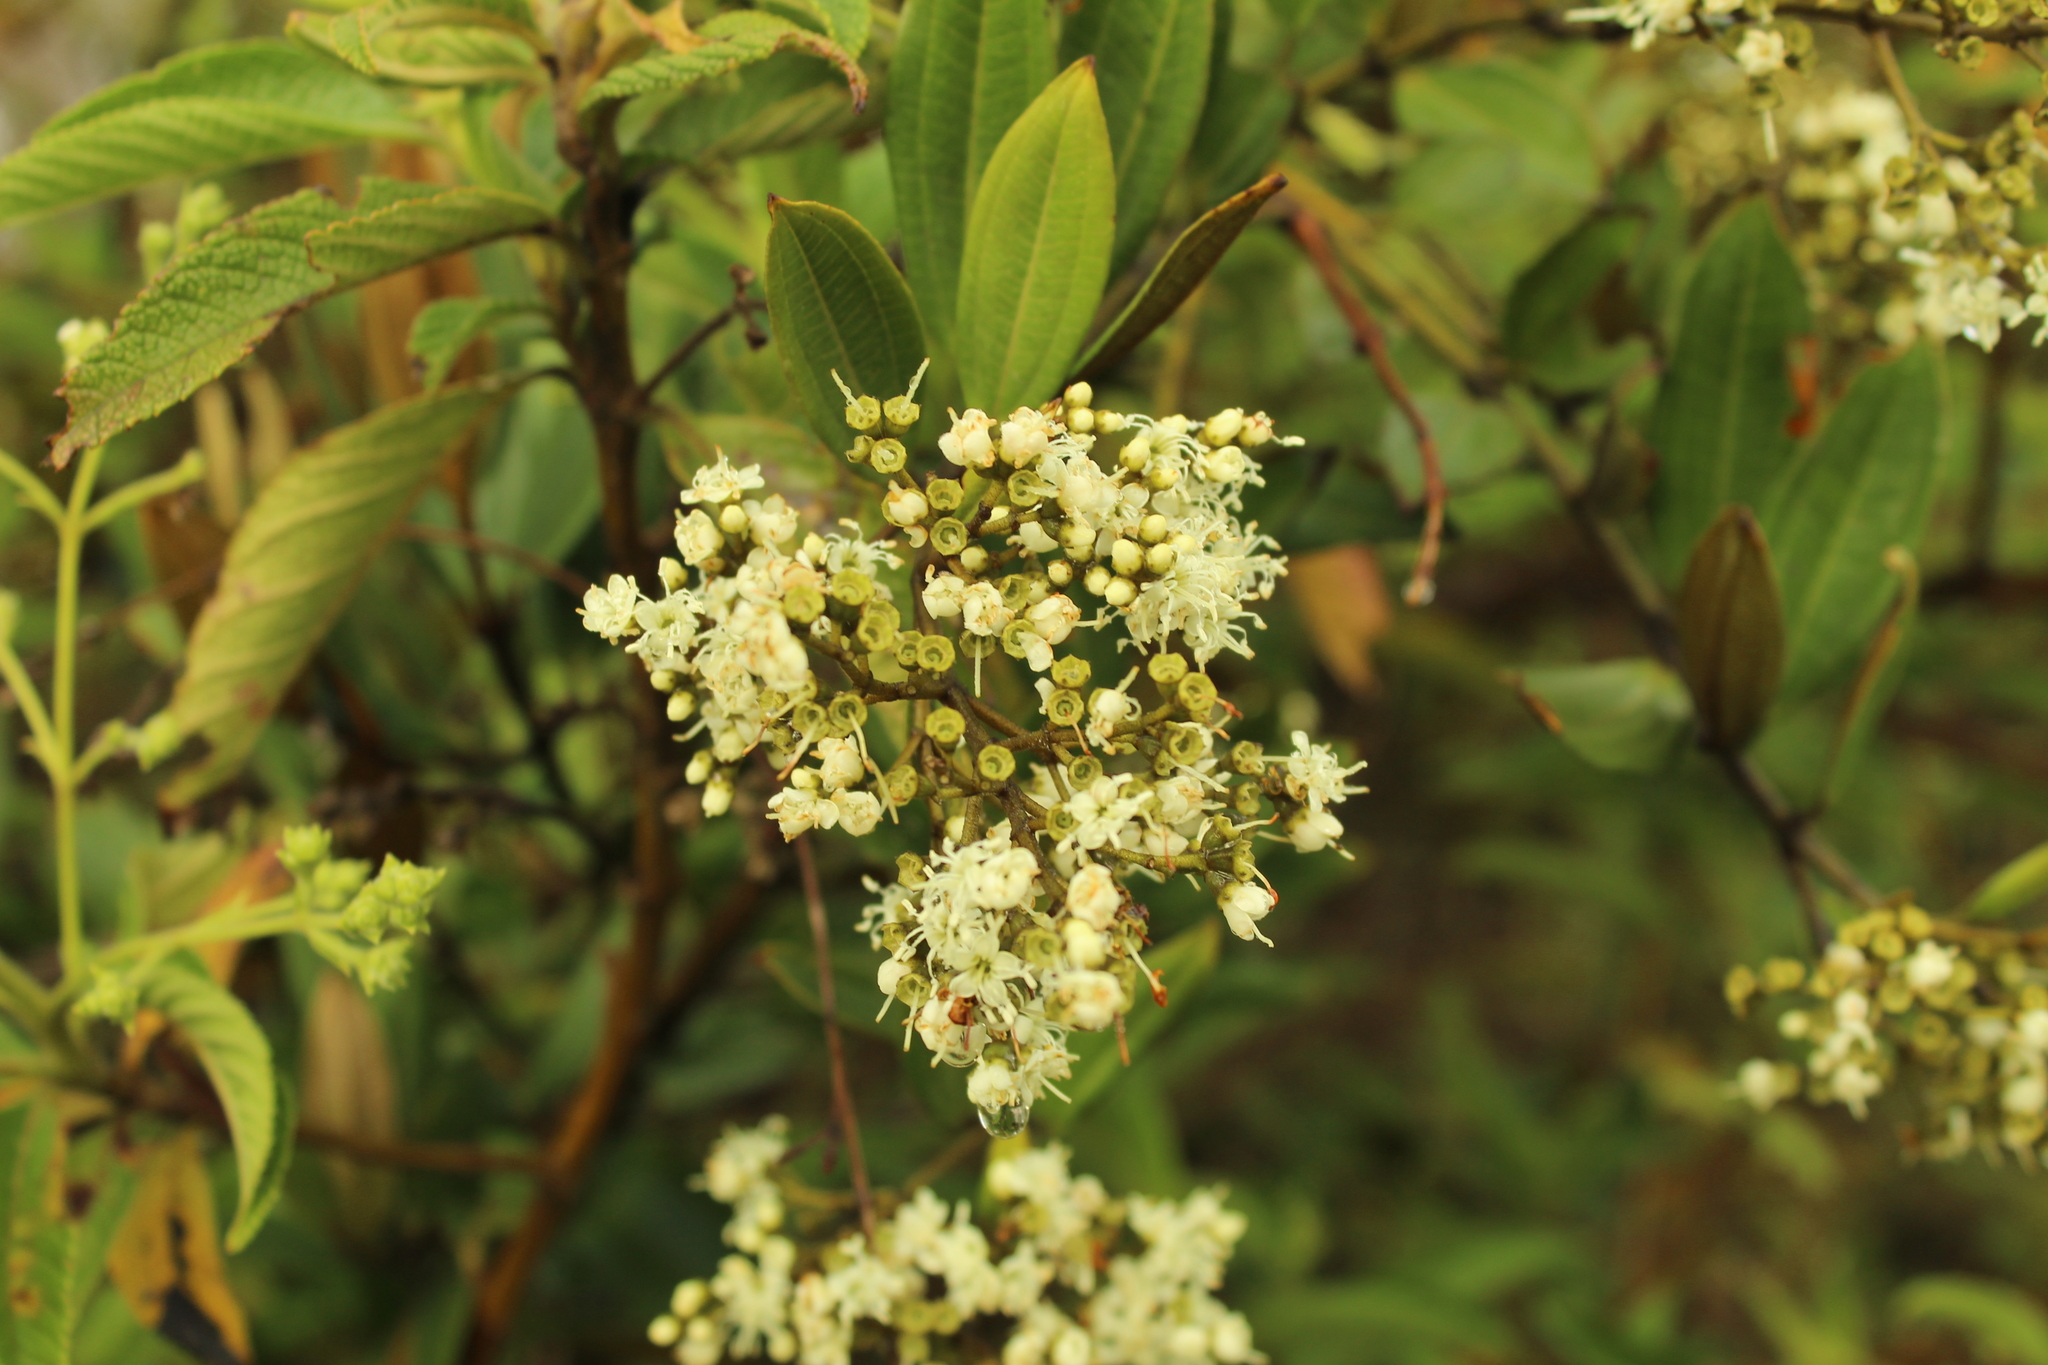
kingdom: Plantae
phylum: Tracheophyta
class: Magnoliopsida
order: Myrtales
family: Melastomataceae
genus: Miconia
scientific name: Miconia squamulosa
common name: Squamulose maya
